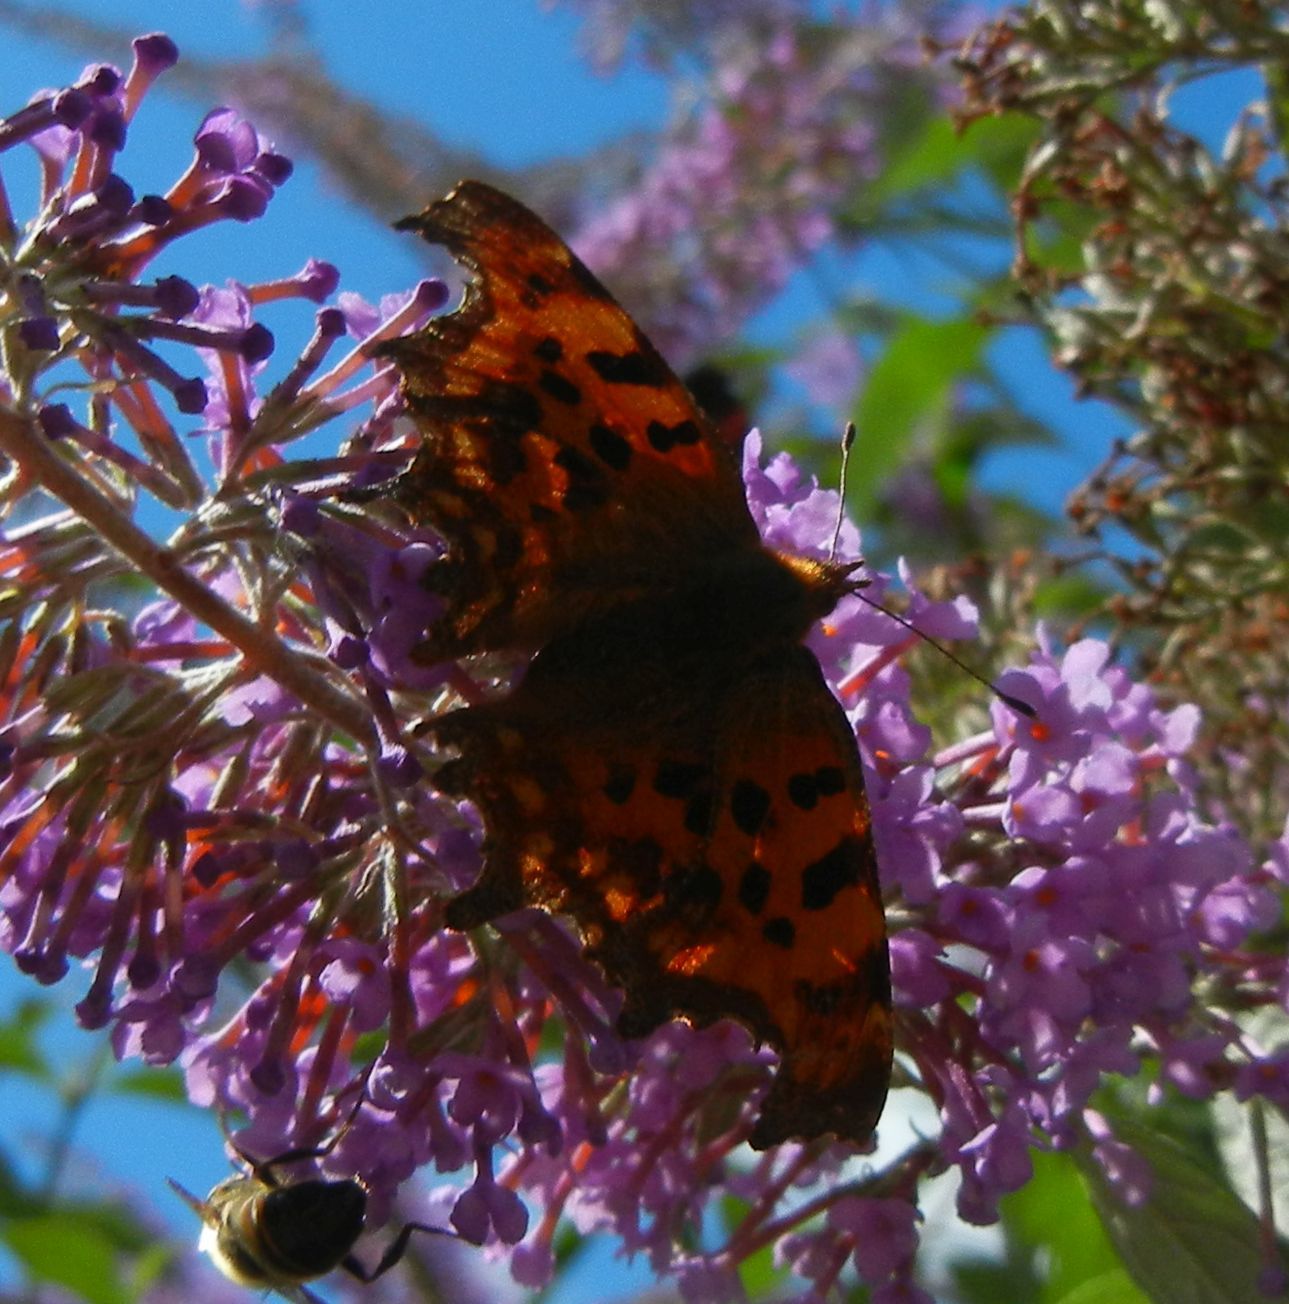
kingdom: Animalia
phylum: Arthropoda
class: Insecta
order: Lepidoptera
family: Nymphalidae
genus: Polygonia
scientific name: Polygonia c-album
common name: Comma
